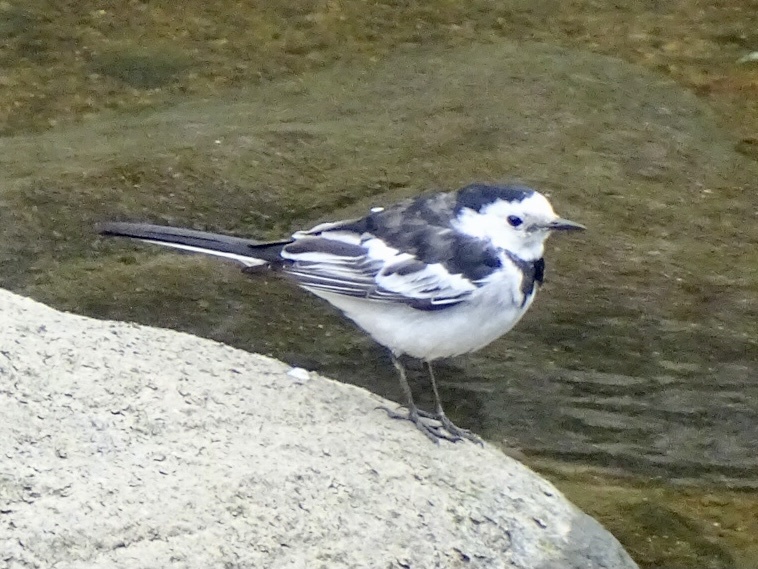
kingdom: Animalia
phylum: Chordata
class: Aves
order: Passeriformes
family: Motacillidae
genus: Motacilla
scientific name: Motacilla alba
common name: White wagtail
